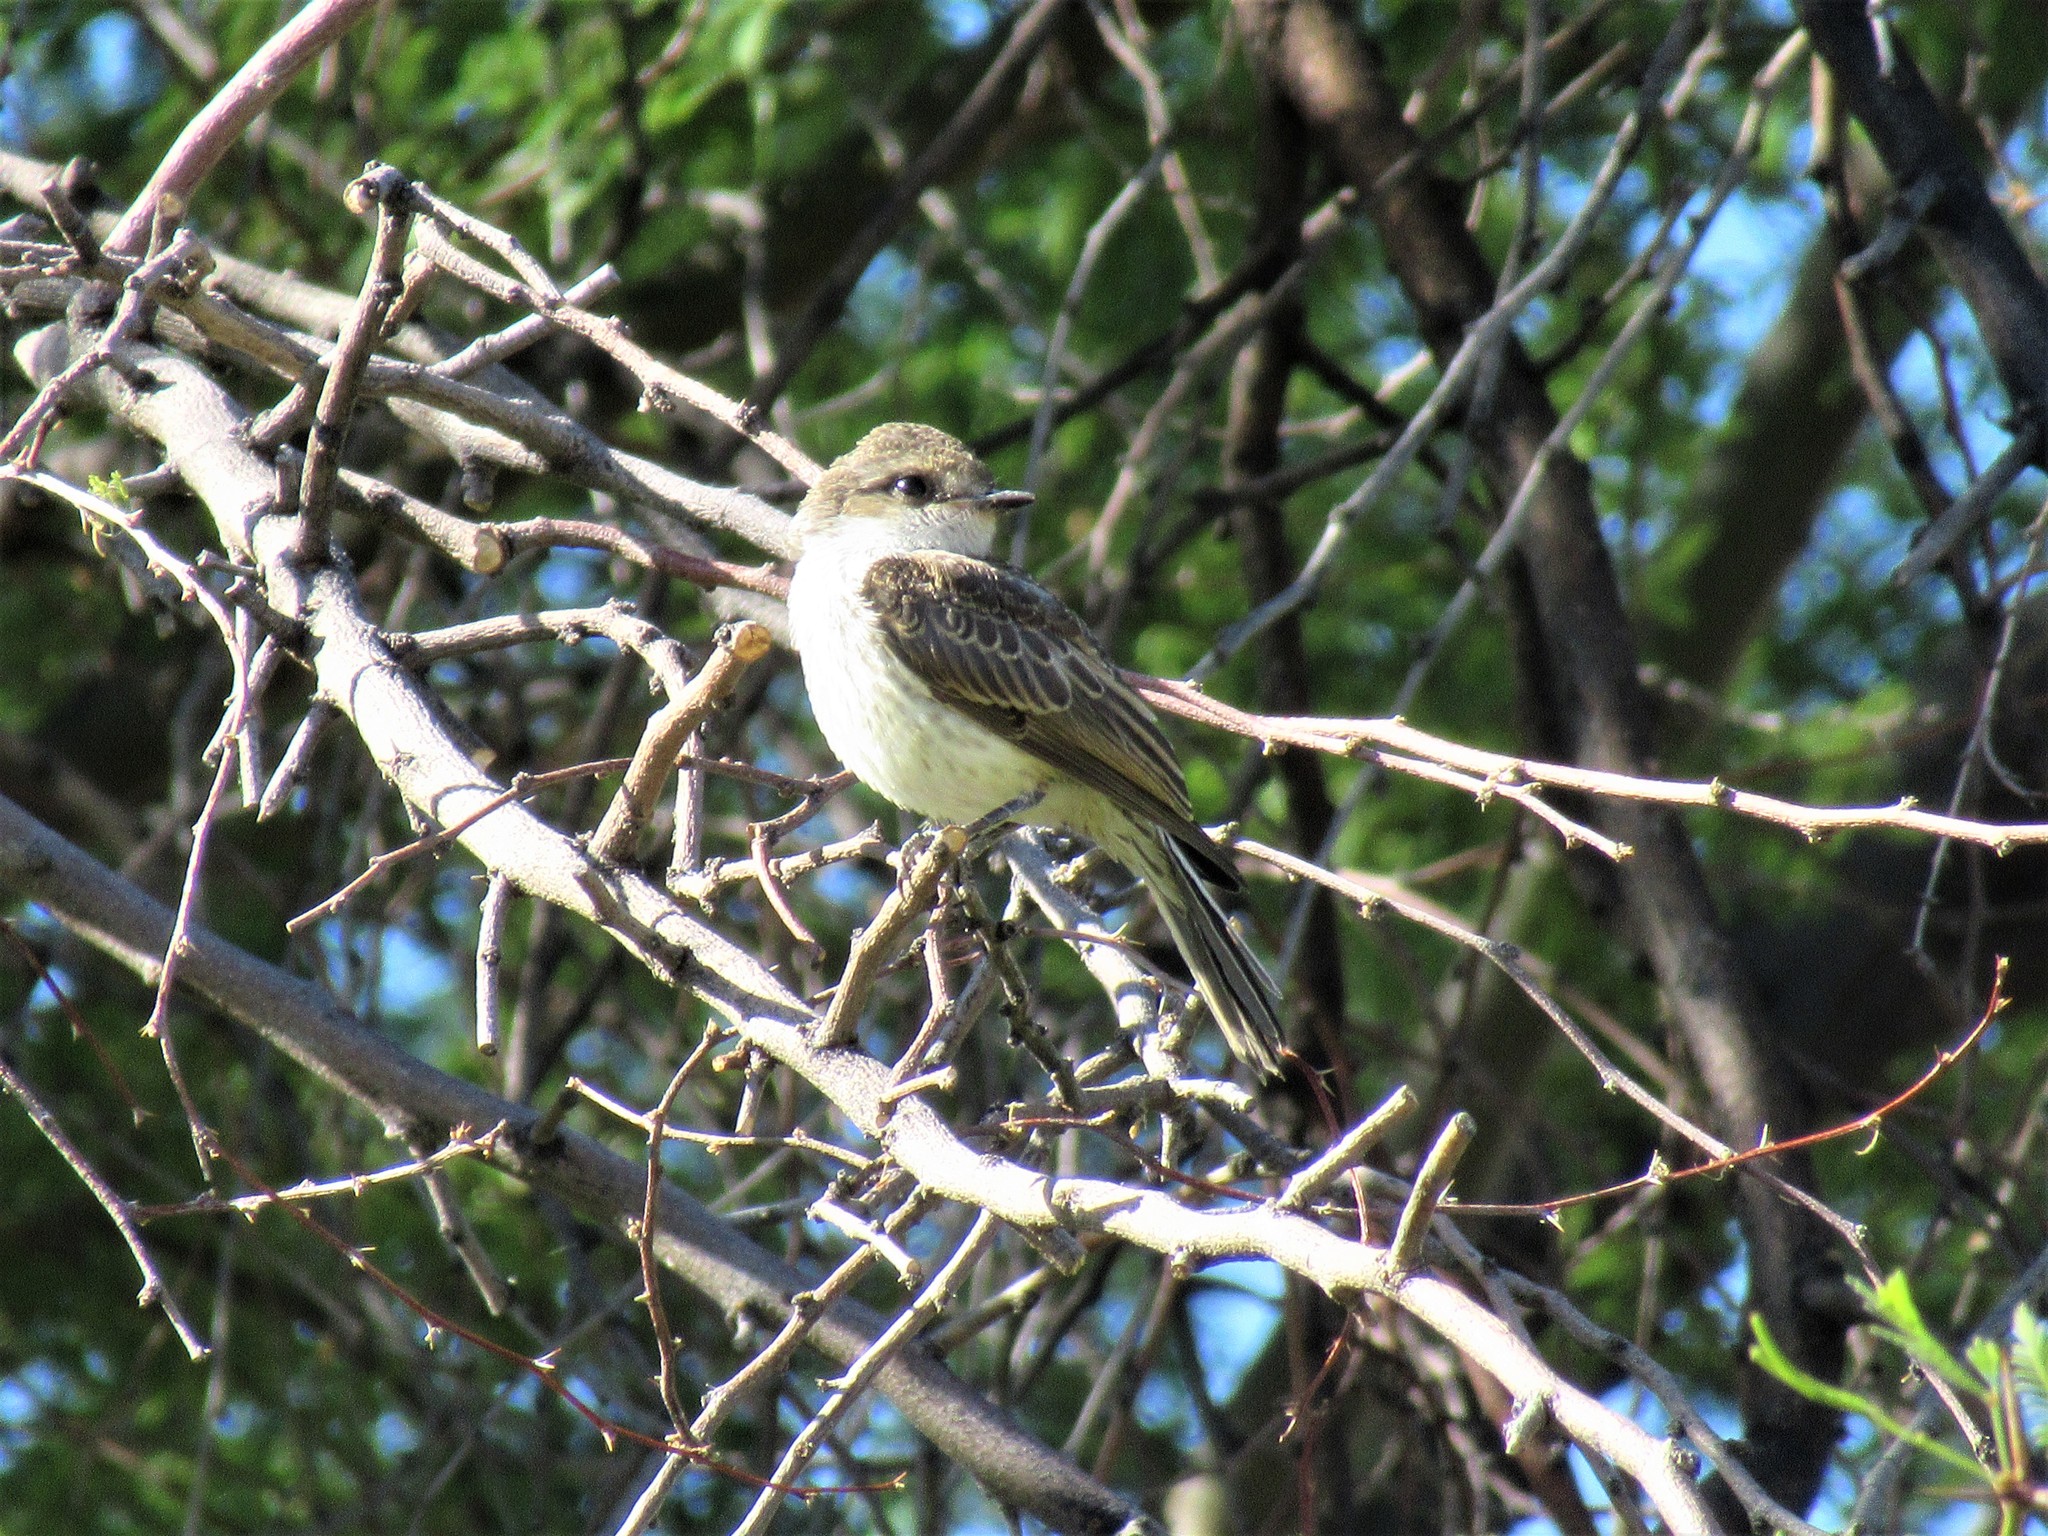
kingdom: Animalia
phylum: Chordata
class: Aves
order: Passeriformes
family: Tyrannidae
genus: Pyrocephalus
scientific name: Pyrocephalus rubinus
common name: Vermilion flycatcher
